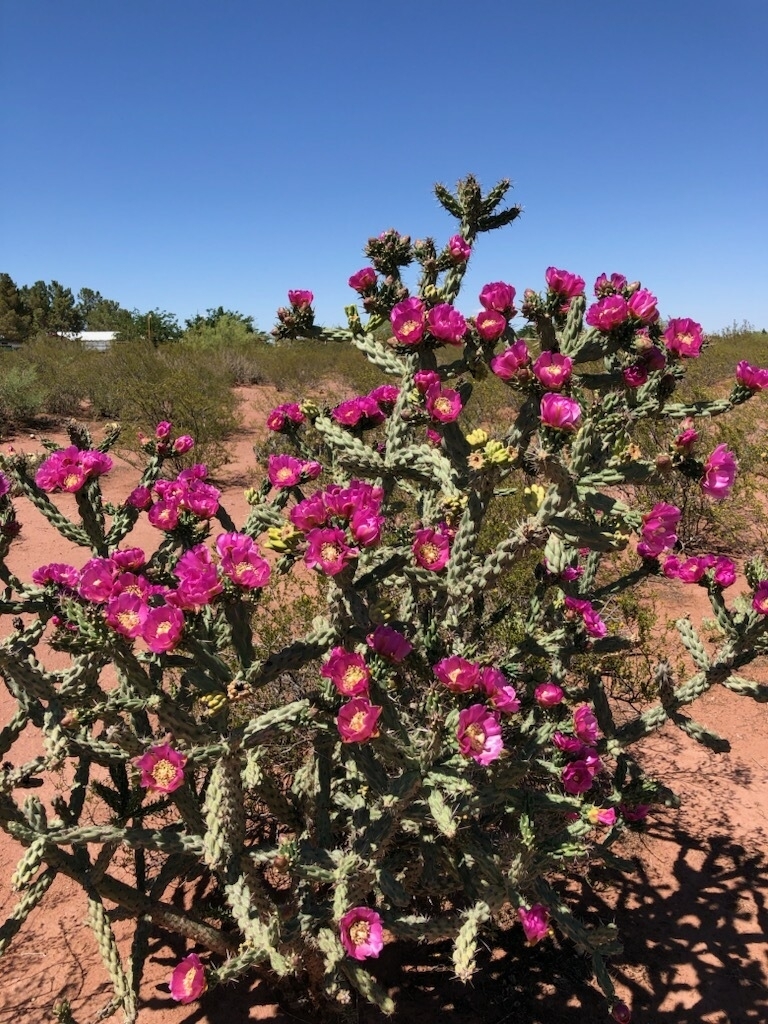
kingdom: Plantae
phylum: Tracheophyta
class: Magnoliopsida
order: Caryophyllales
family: Cactaceae
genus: Cylindropuntia
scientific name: Cylindropuntia imbricata
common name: Candelabrum cactus
